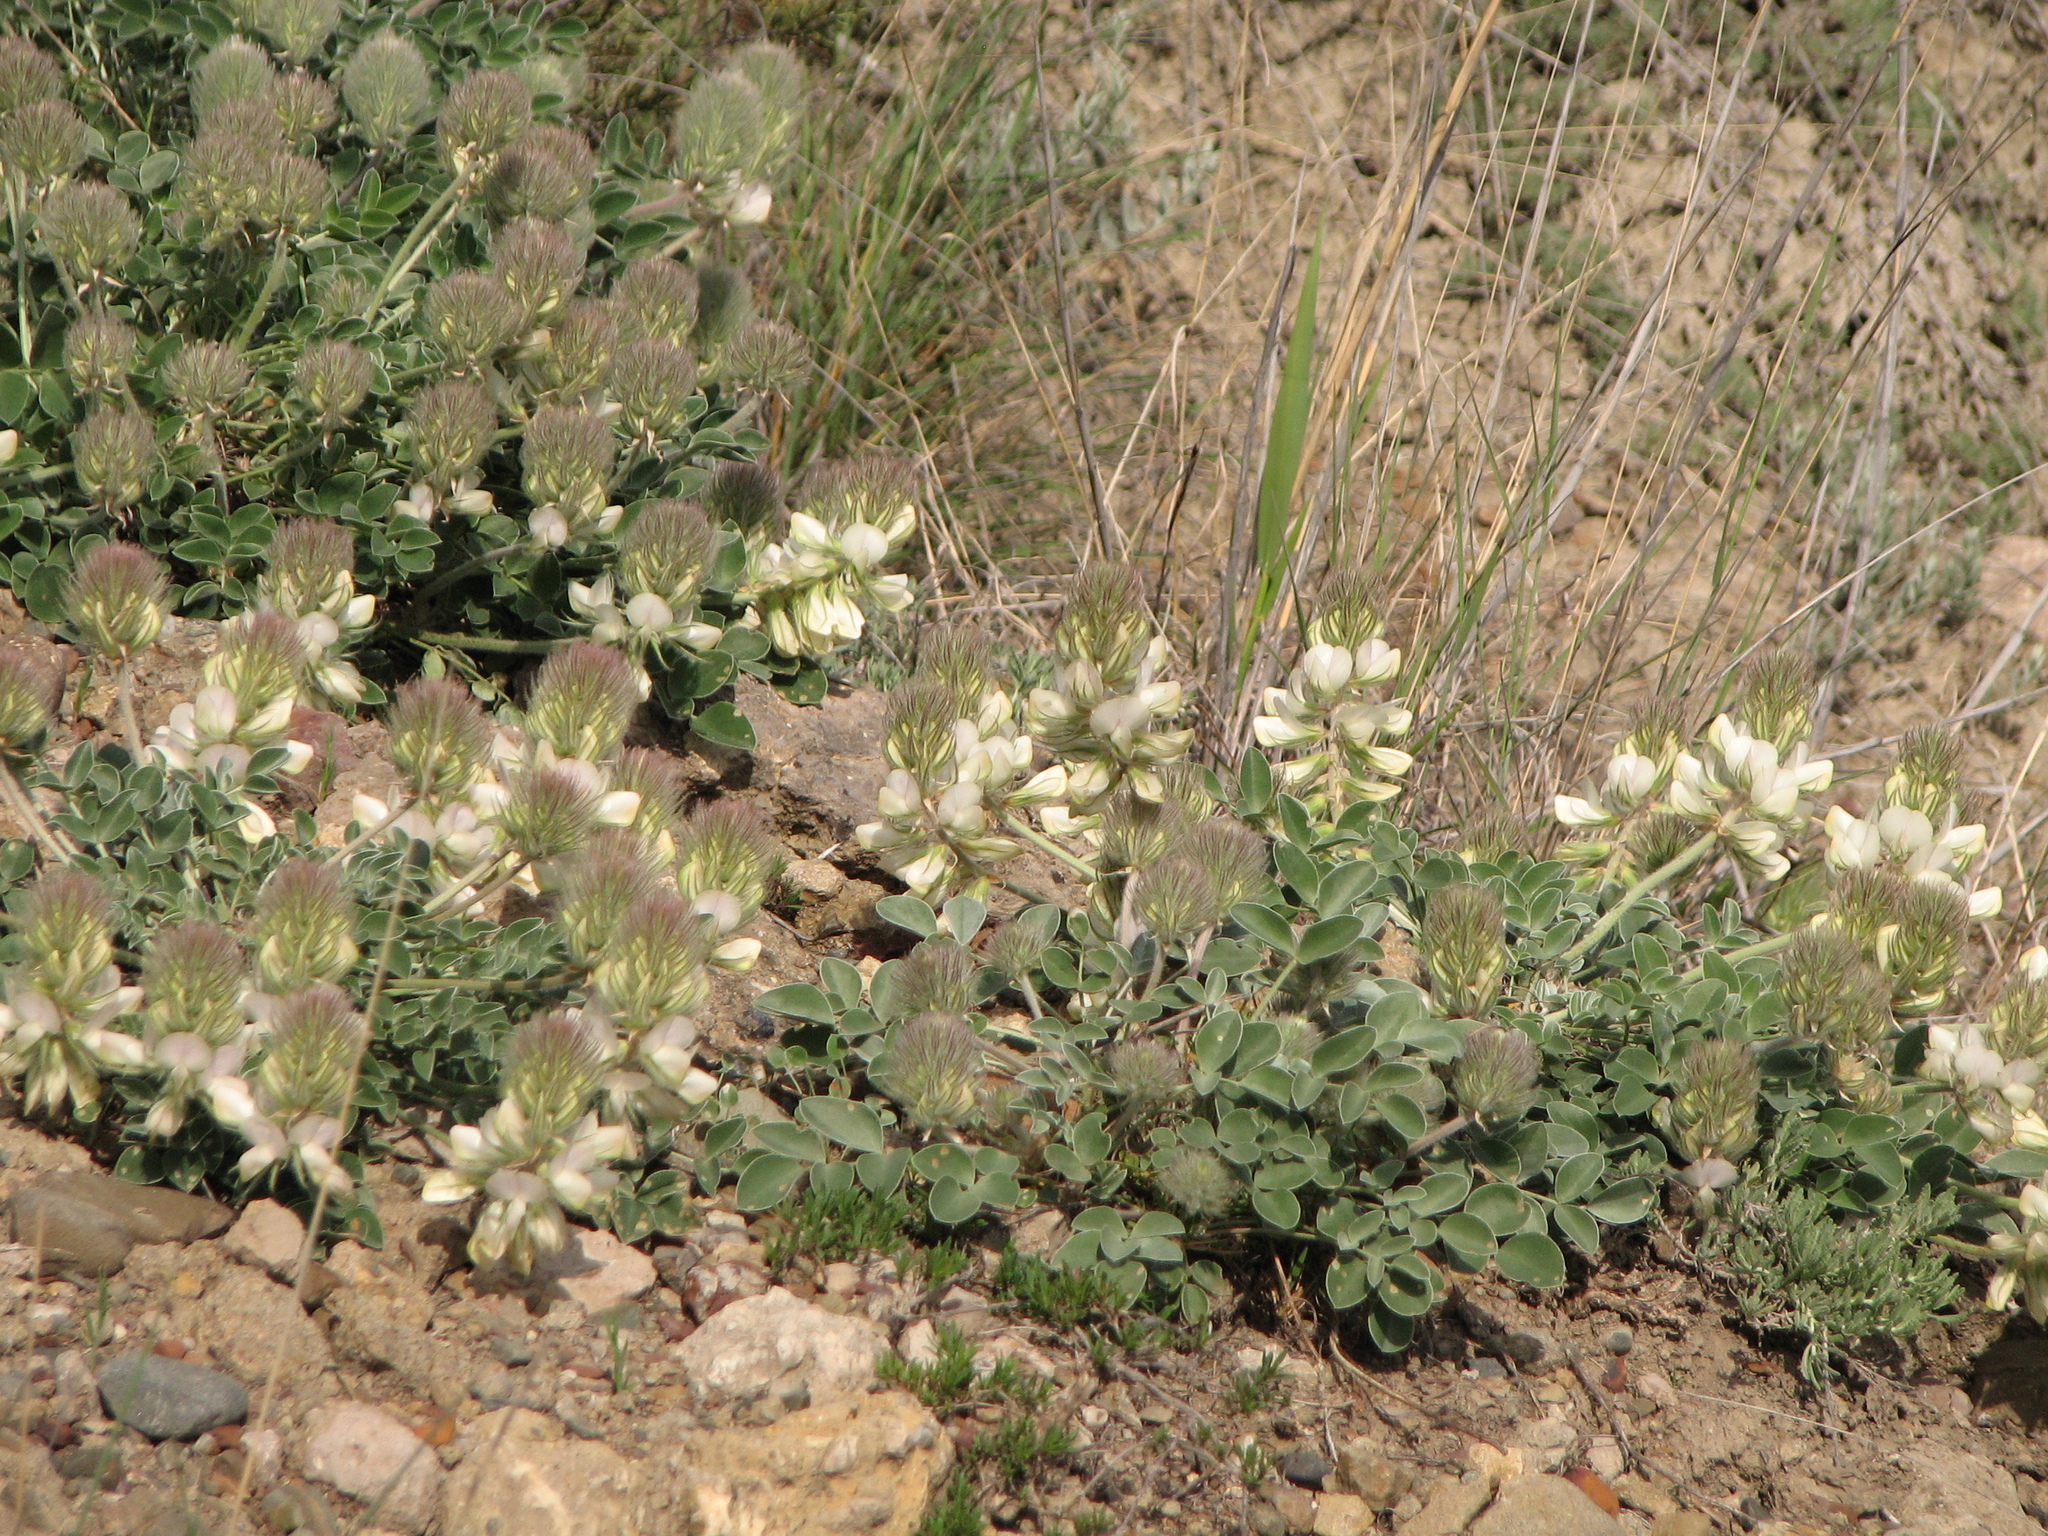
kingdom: Plantae
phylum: Tracheophyta
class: Magnoliopsida
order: Fabales
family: Fabaceae
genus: Hedysarum
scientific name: Hedysarum candidum
